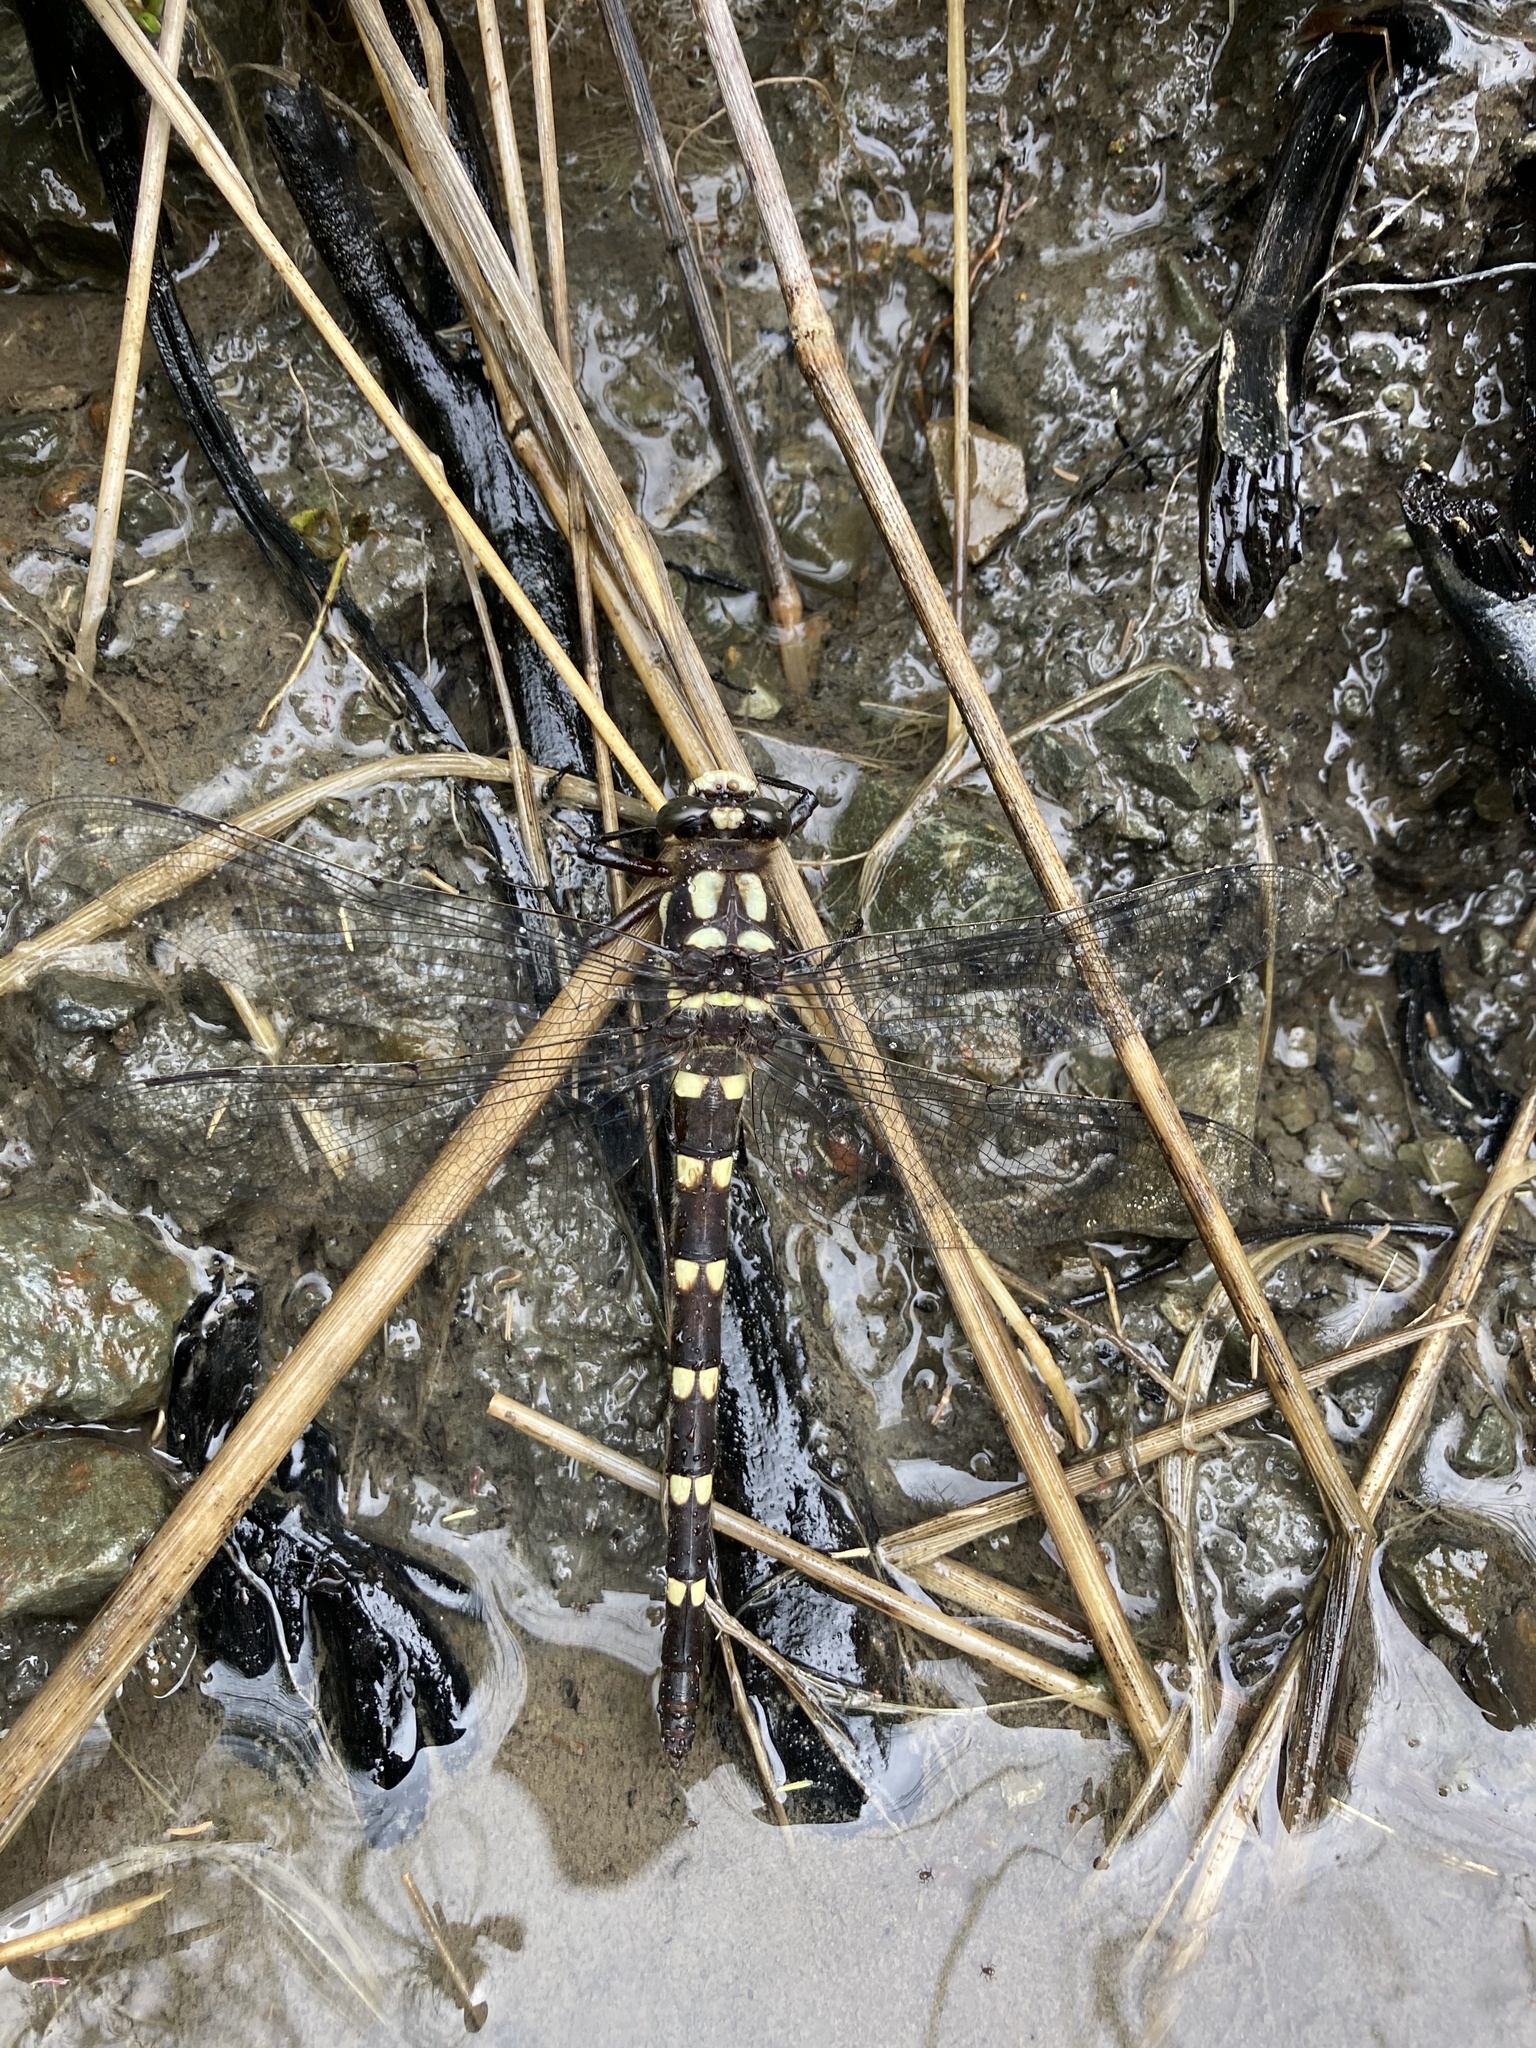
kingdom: Animalia
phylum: Arthropoda
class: Insecta
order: Odonata
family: Petaluridae
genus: Uropetala
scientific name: Uropetala chiltoni
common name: Mountain giant dragonfly
